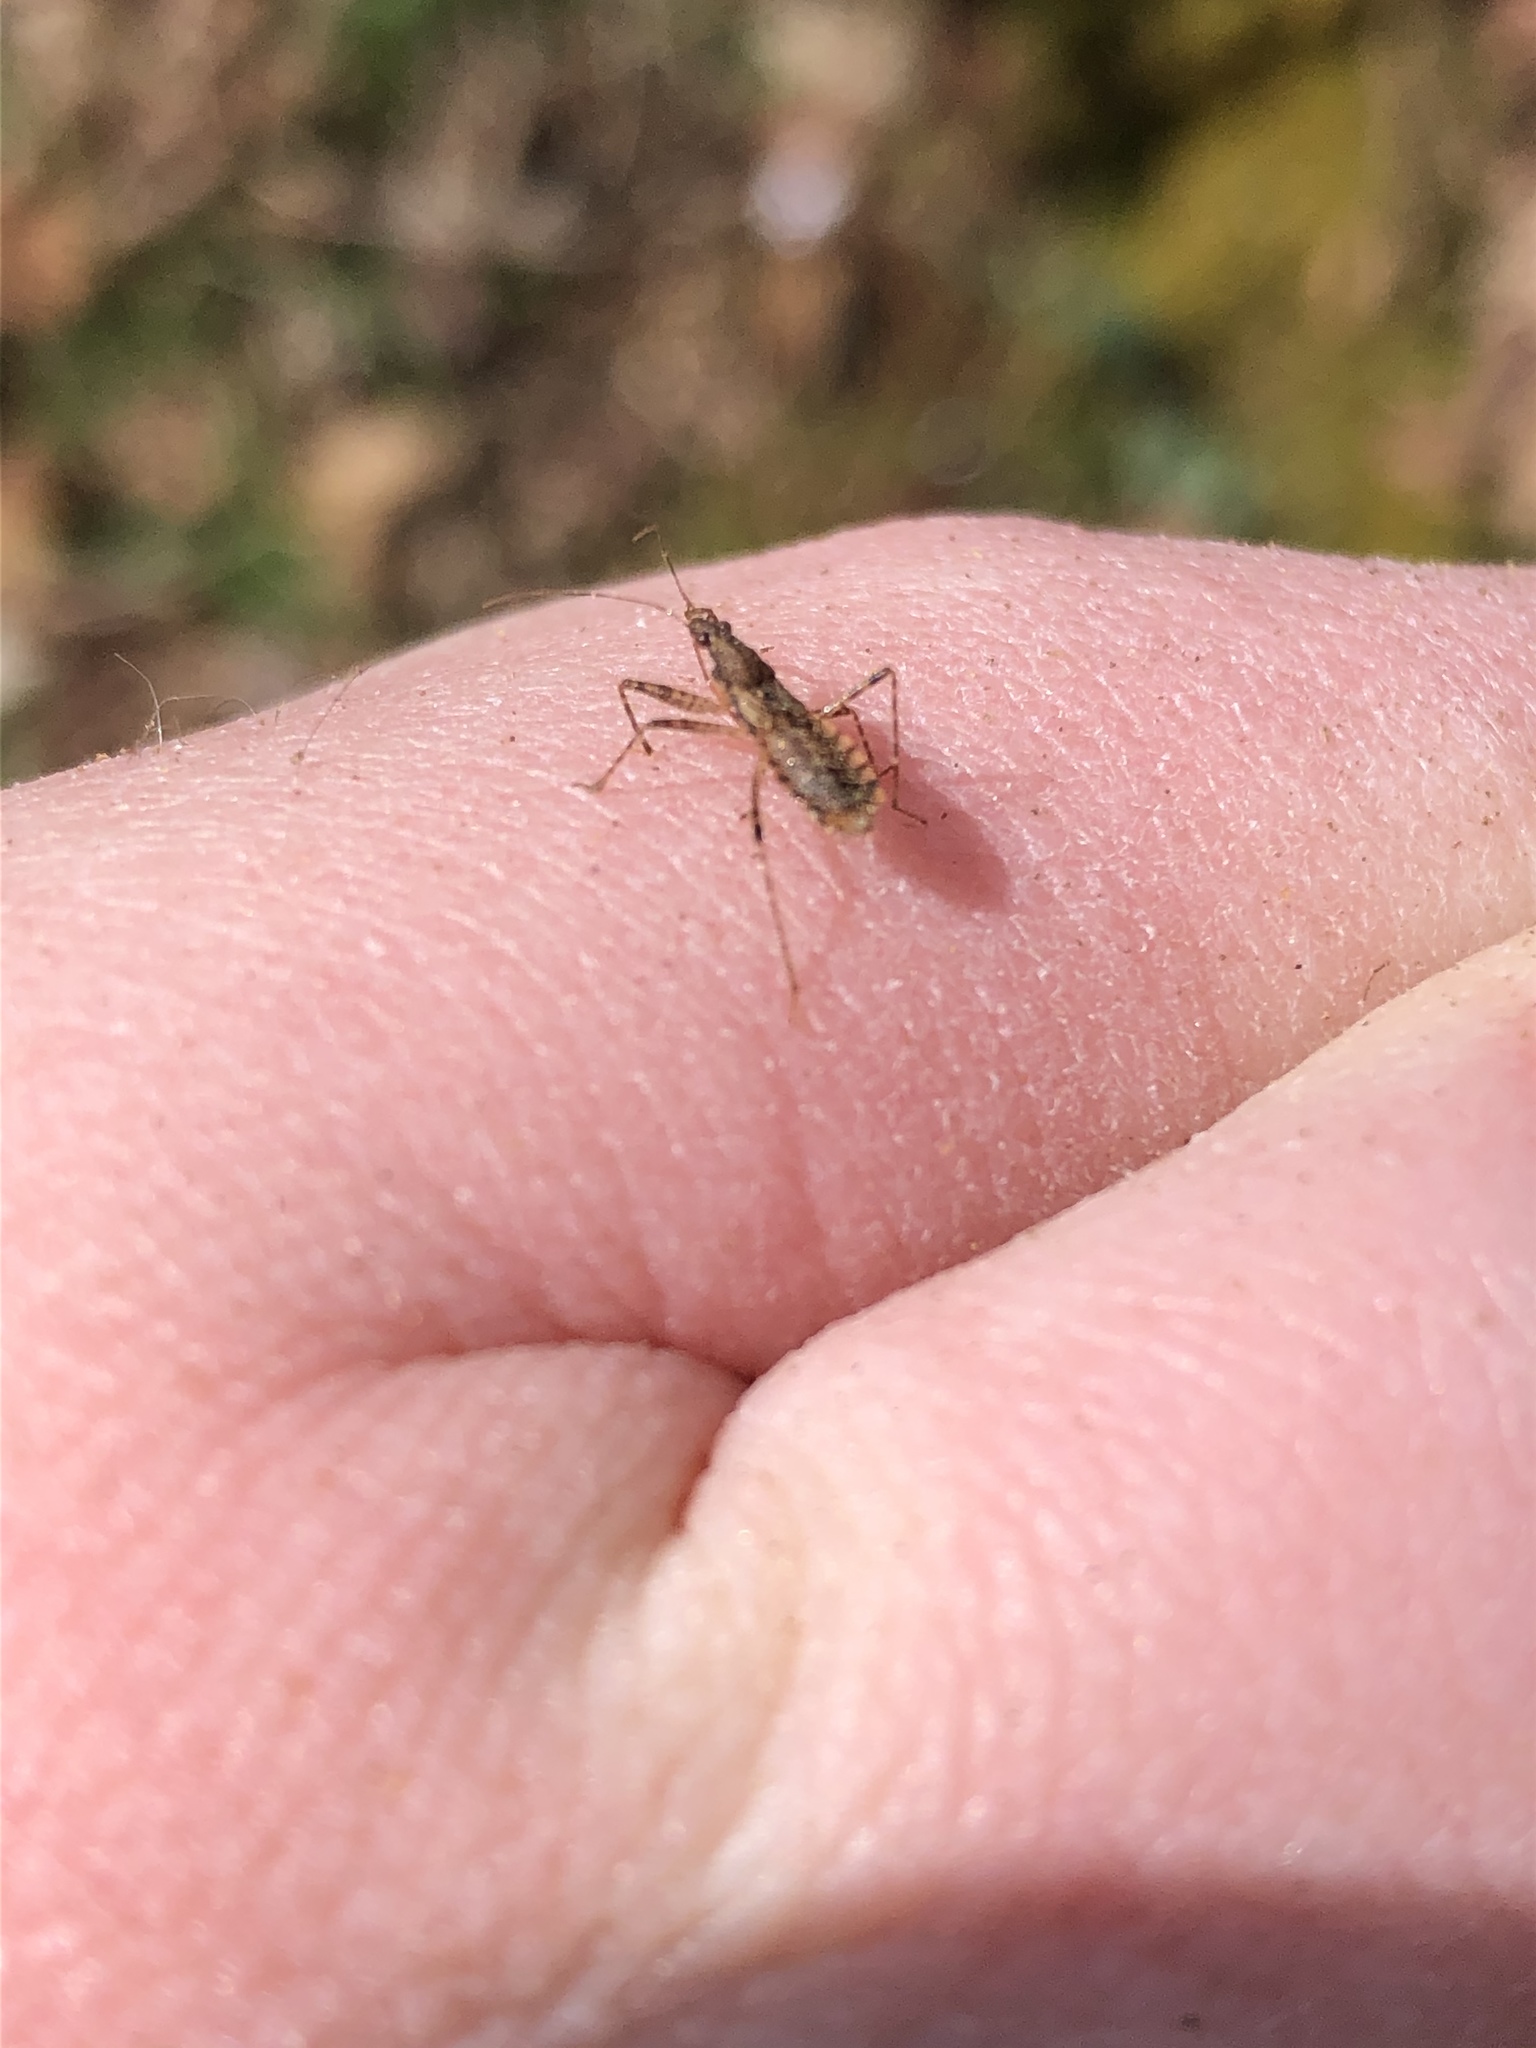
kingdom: Animalia
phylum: Arthropoda
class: Insecta
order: Hemiptera
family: Nabidae
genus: Hoplistoscelis
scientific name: Hoplistoscelis pallescens
